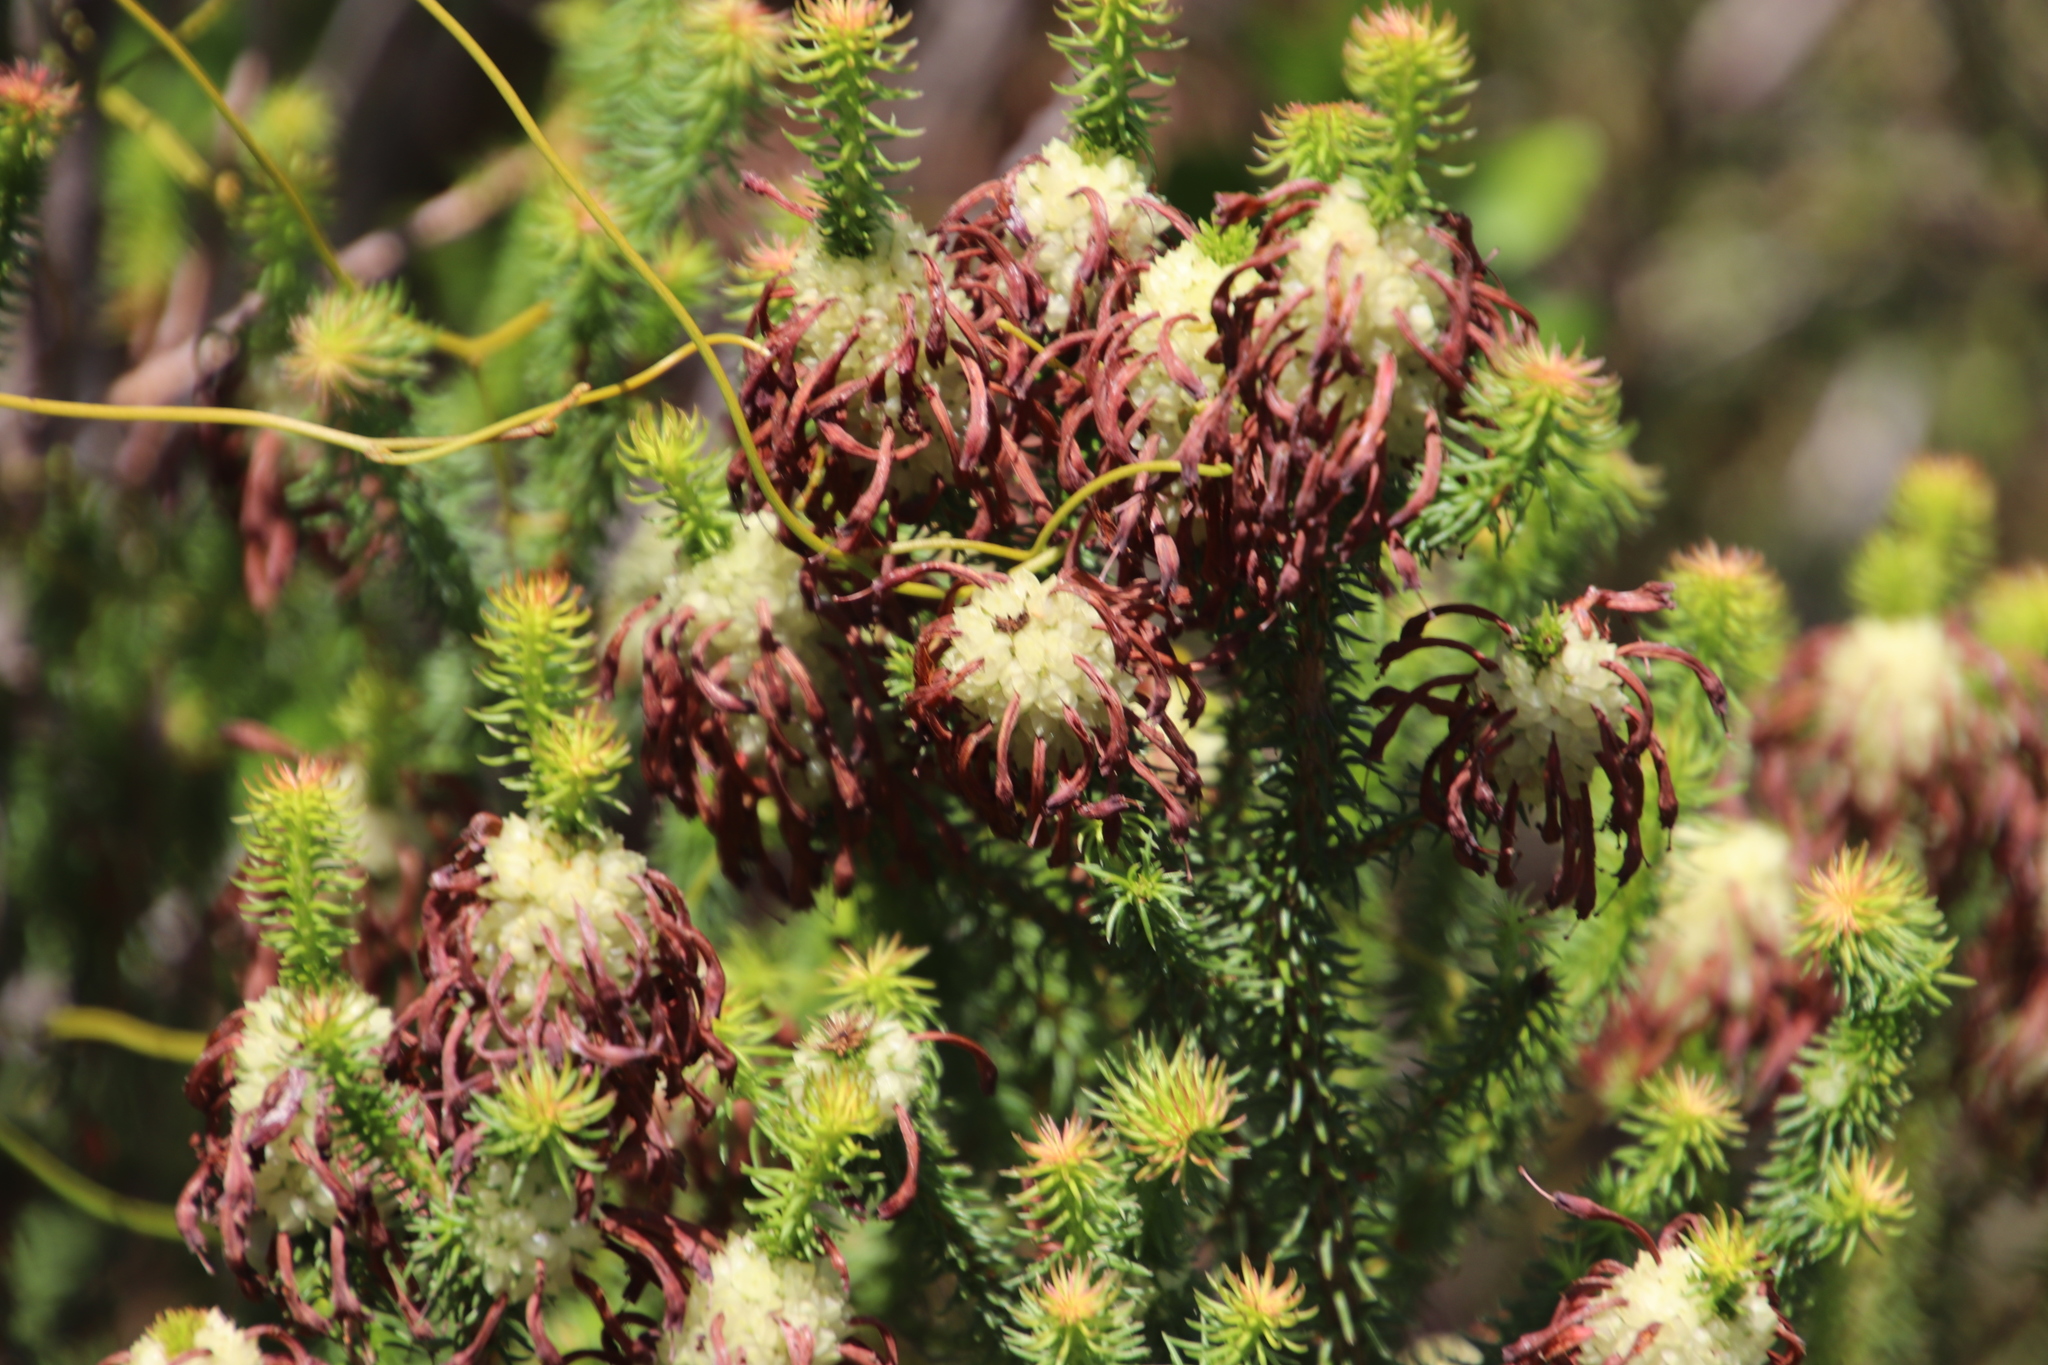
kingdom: Plantae
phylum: Tracheophyta
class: Magnoliopsida
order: Ericales
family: Ericaceae
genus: Erica
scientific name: Erica sessiliflora
